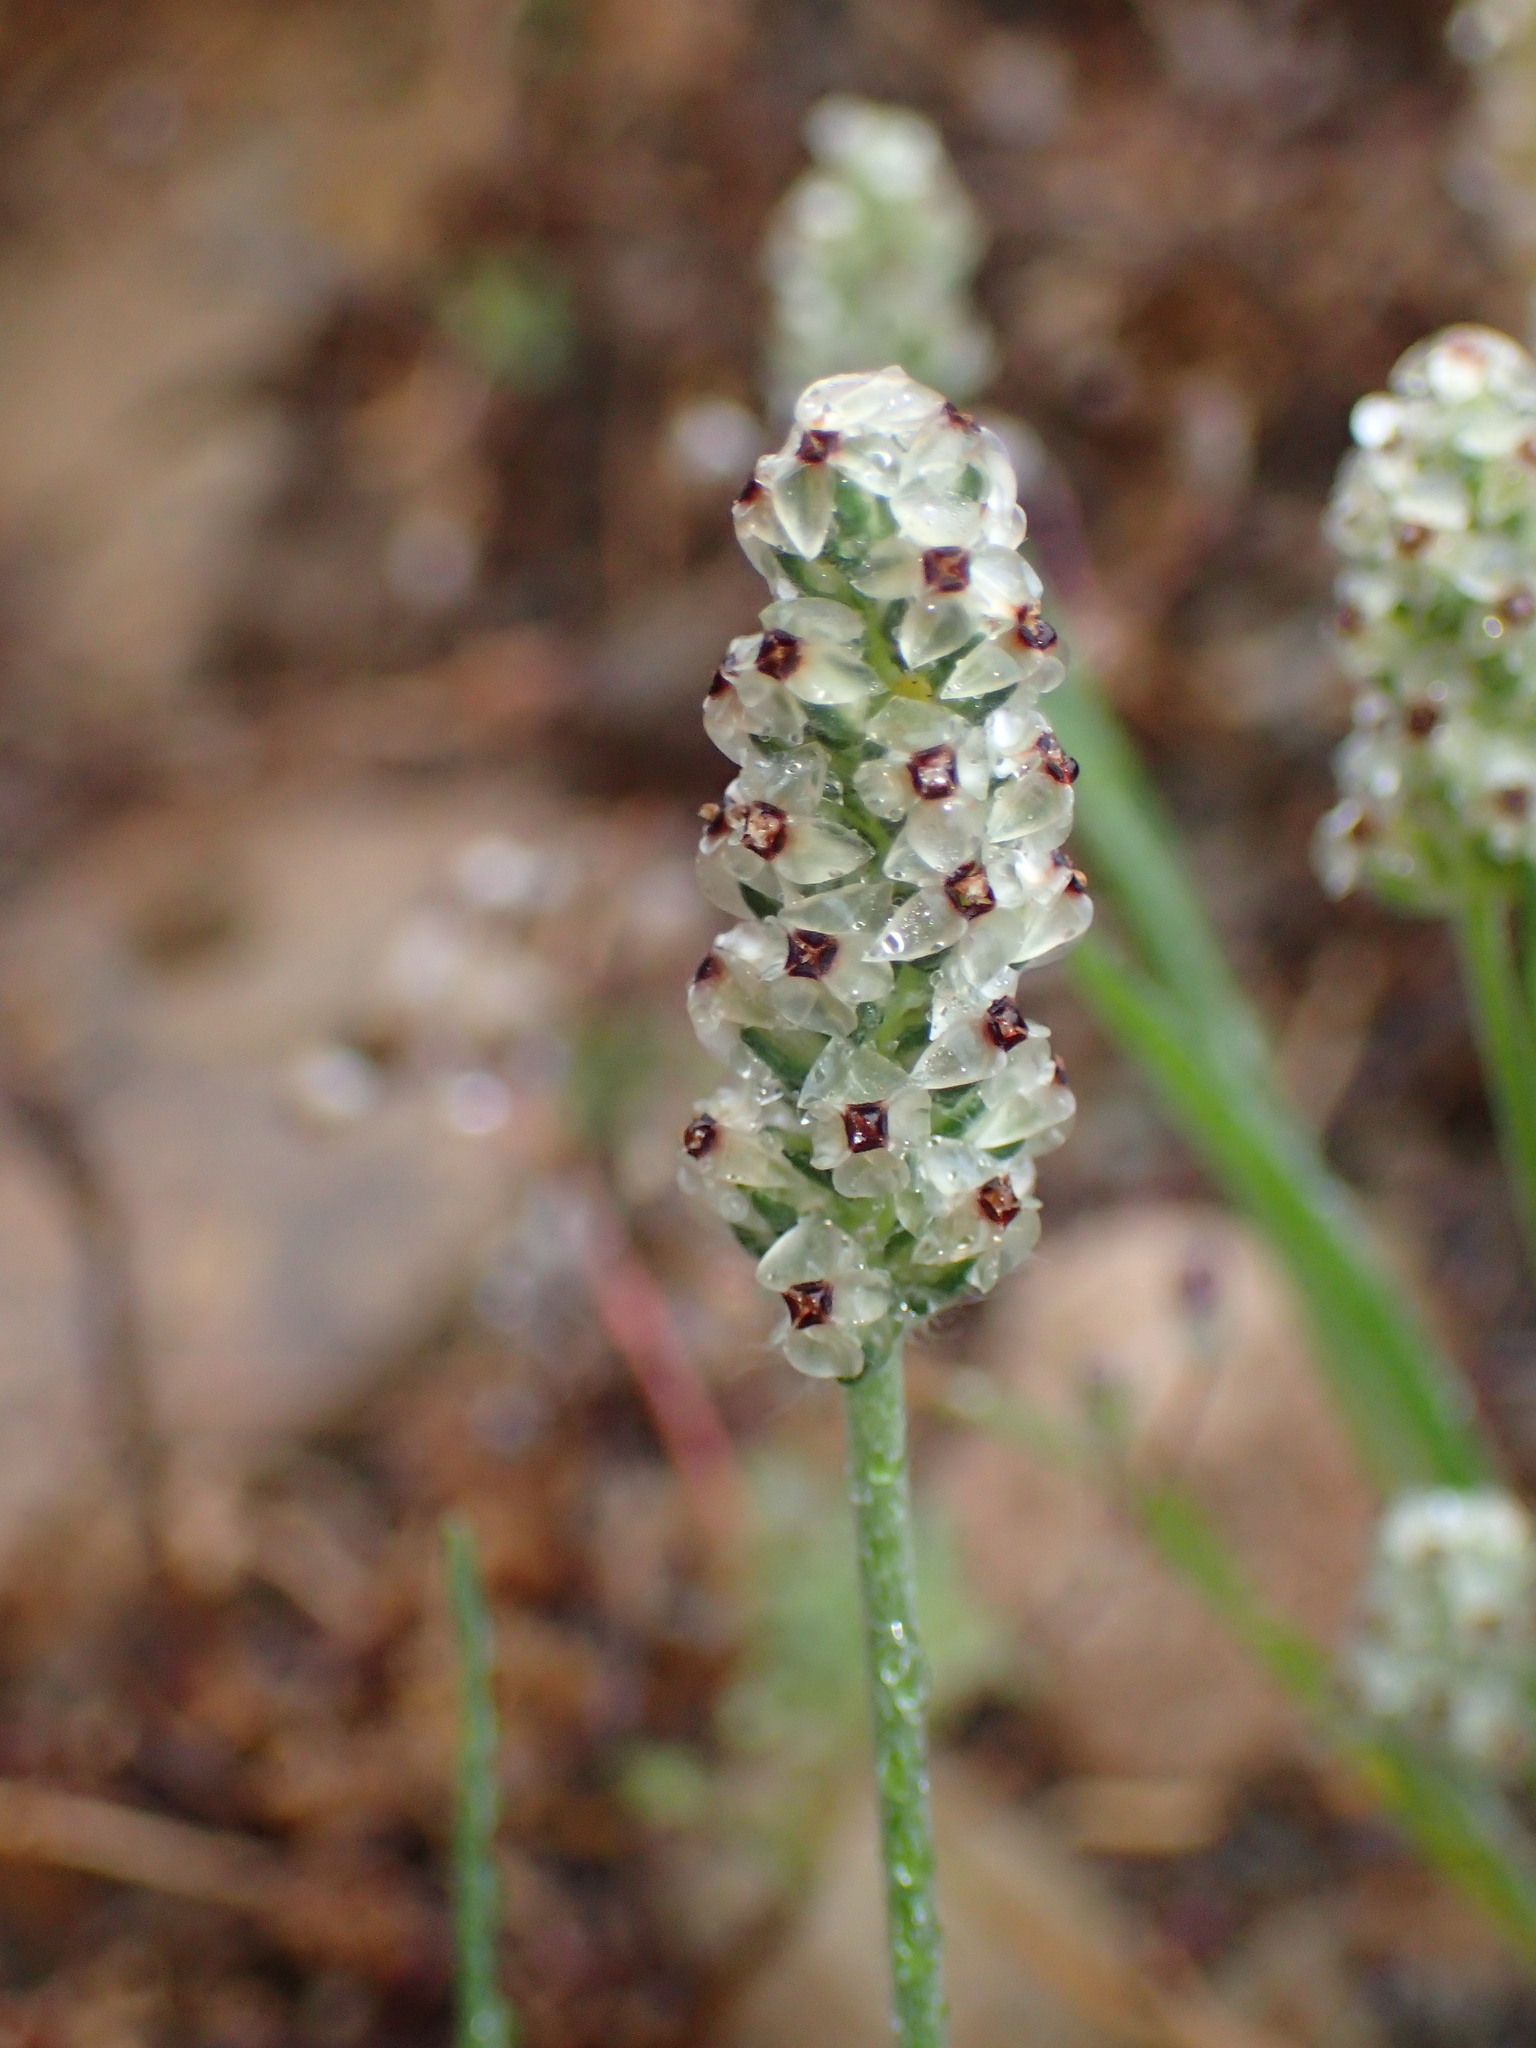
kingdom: Plantae
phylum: Tracheophyta
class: Magnoliopsida
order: Lamiales
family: Plantaginaceae
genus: Plantago
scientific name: Plantago erecta
